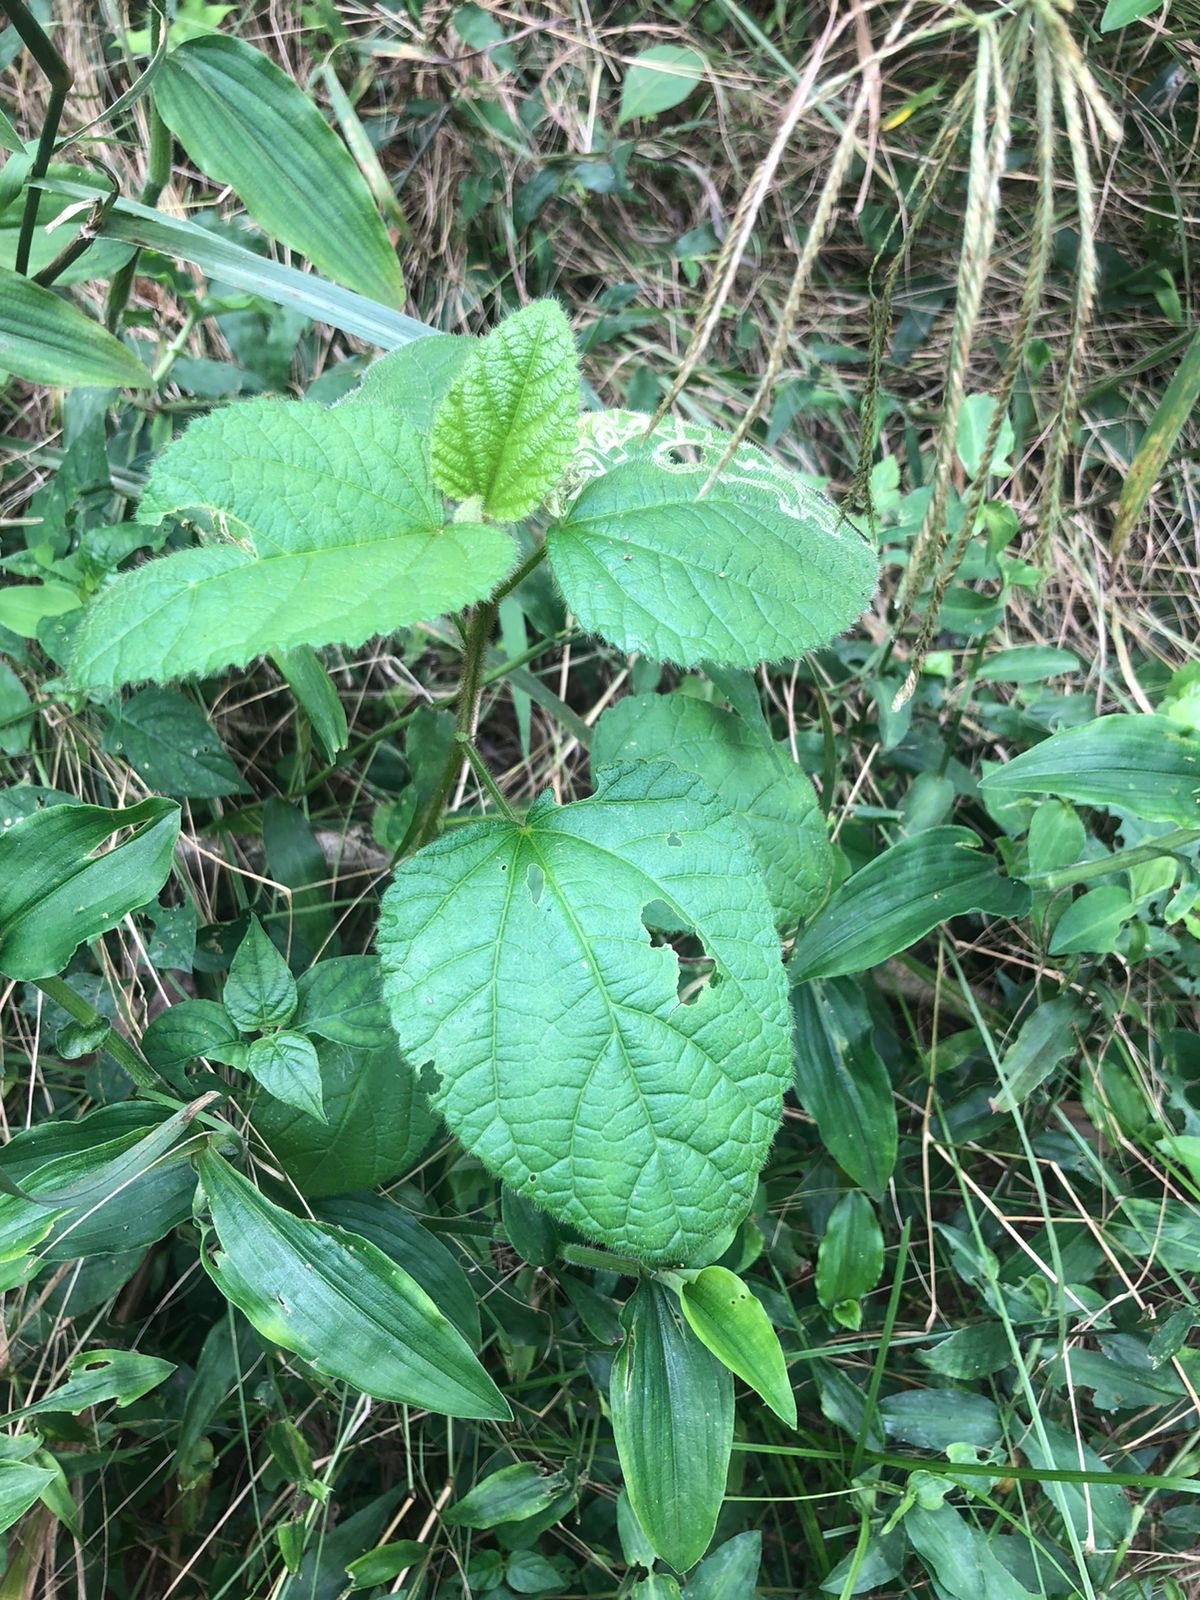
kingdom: Plantae
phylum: Tracheophyta
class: Magnoliopsida
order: Malvales
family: Malvaceae
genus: Hibiscus
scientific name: Hibiscus fuscus
